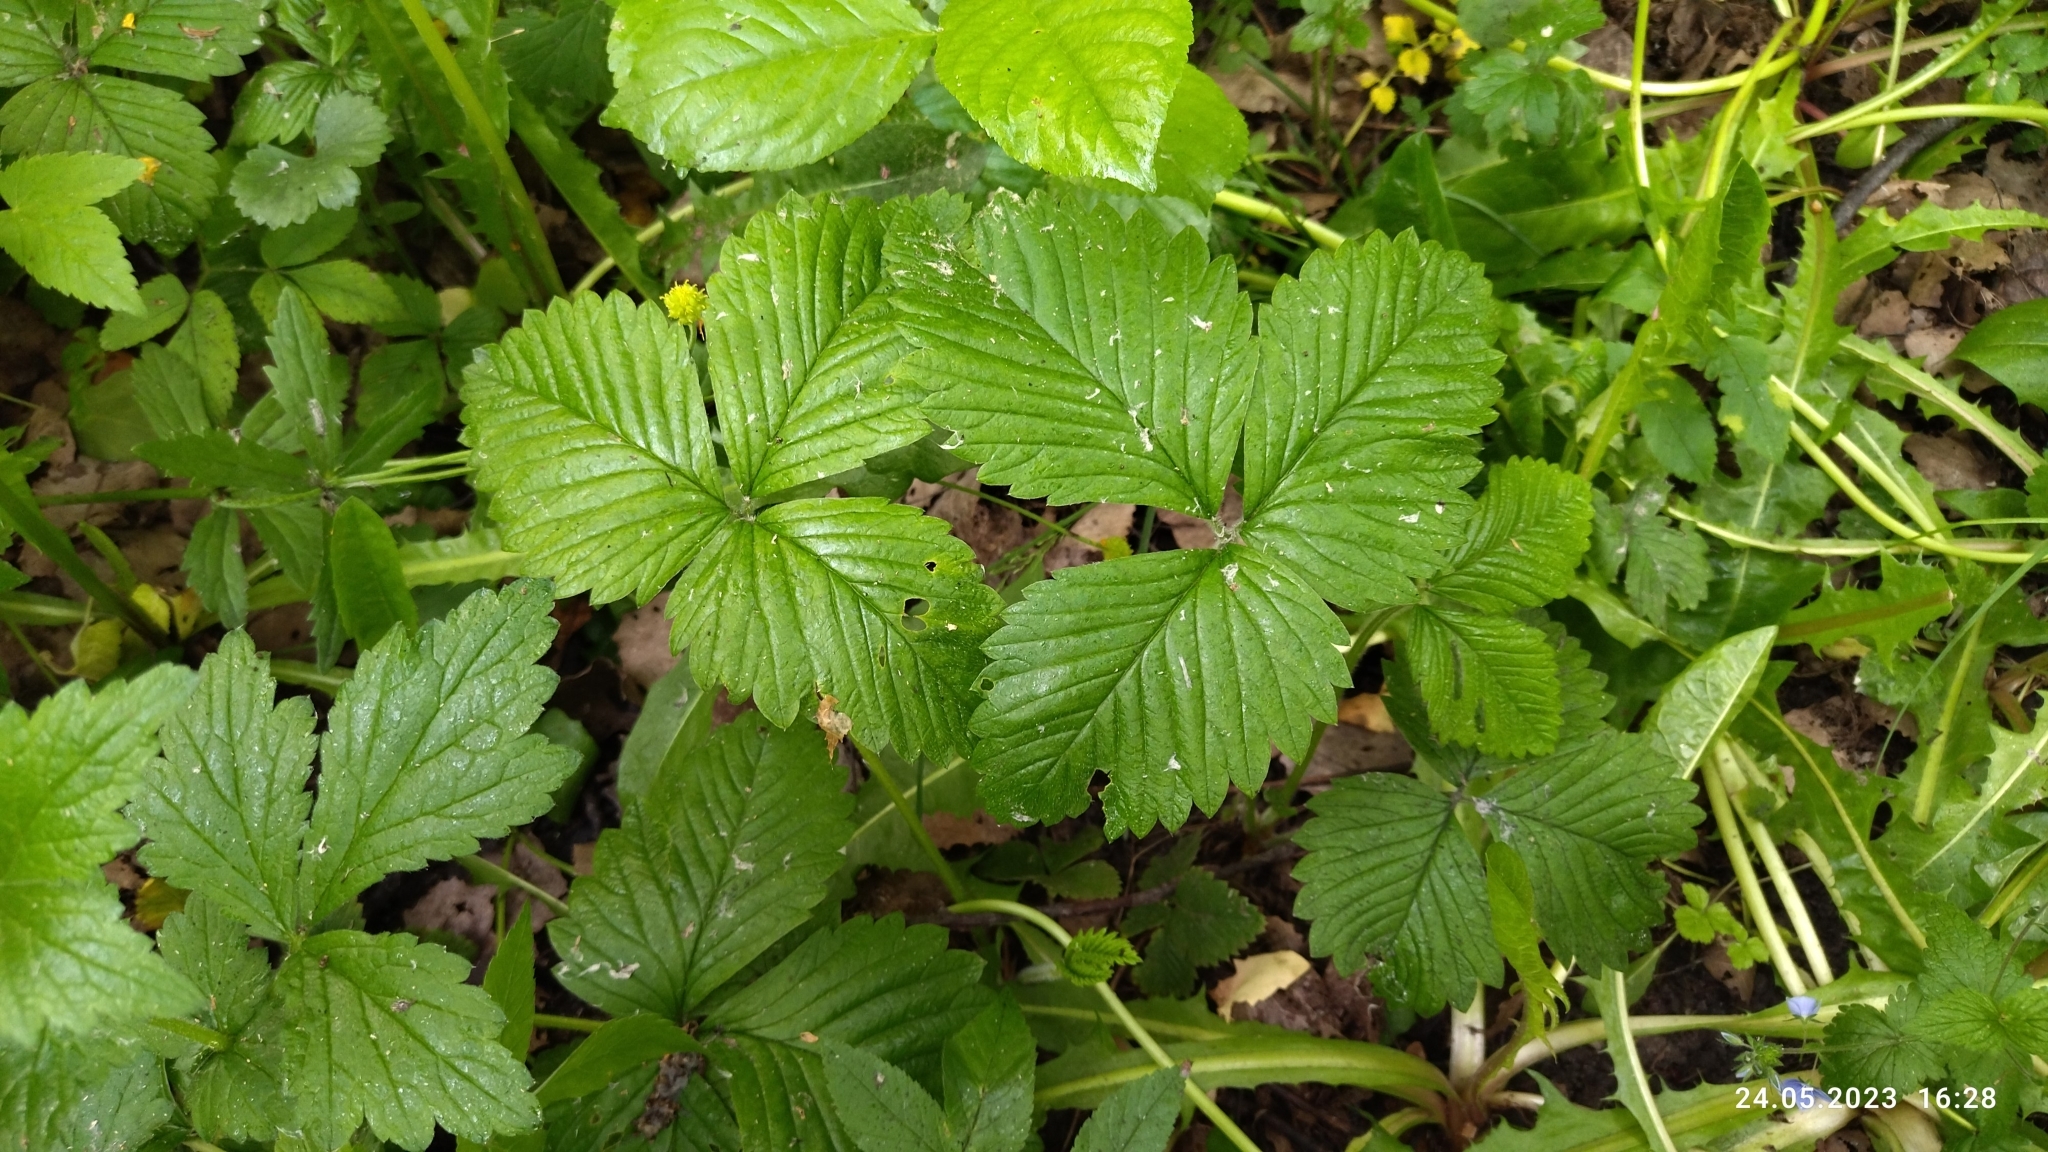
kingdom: Plantae
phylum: Tracheophyta
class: Magnoliopsida
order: Rosales
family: Rosaceae
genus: Fragaria
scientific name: Fragaria moschata
